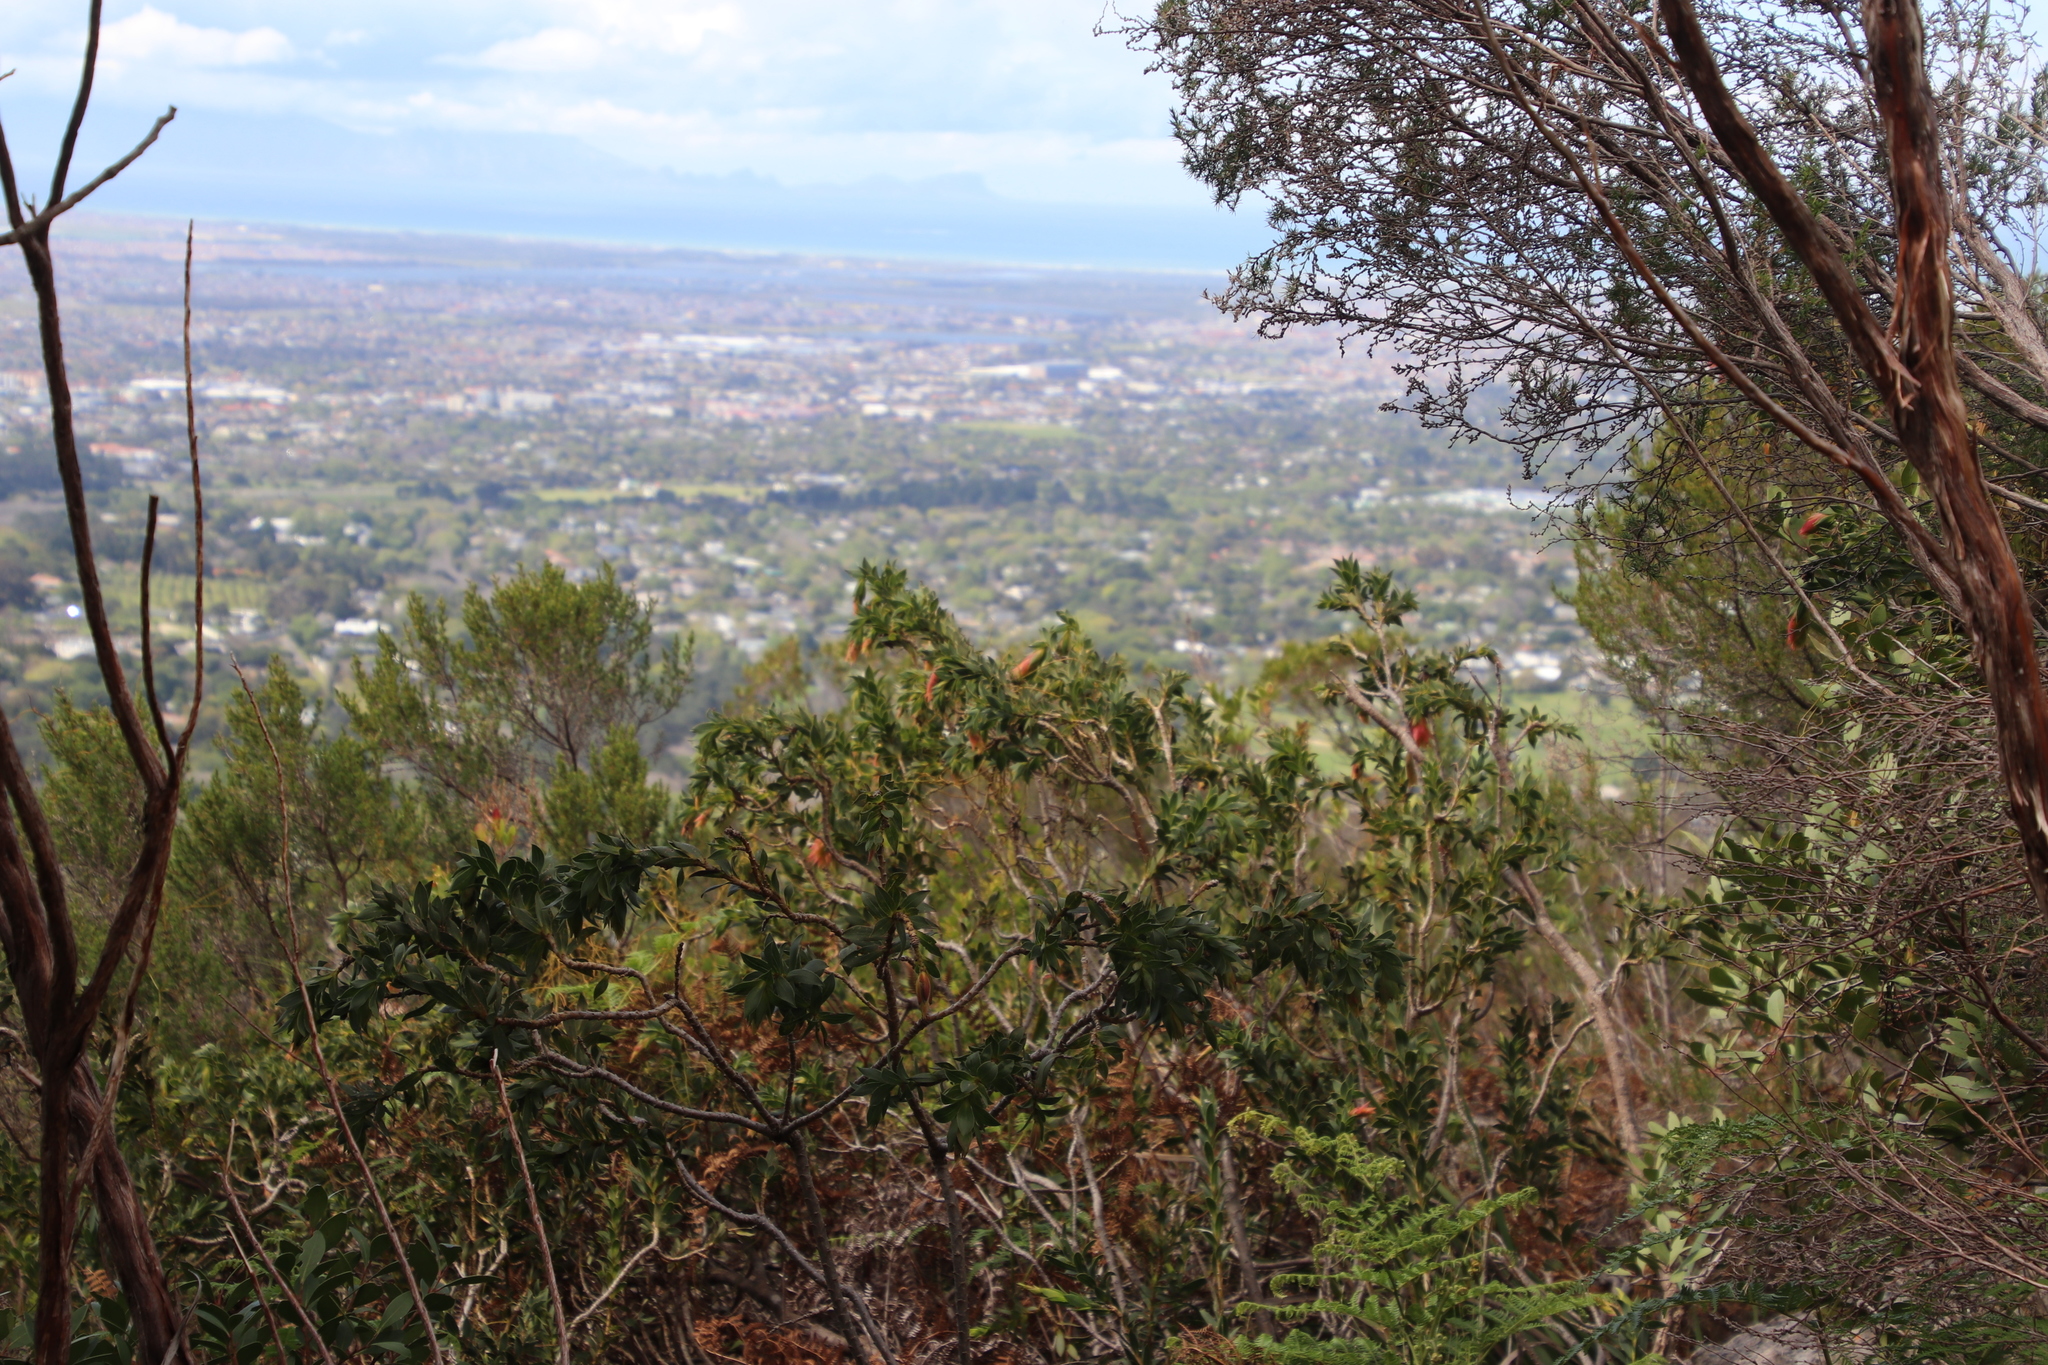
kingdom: Plantae
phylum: Tracheophyta
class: Magnoliopsida
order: Fabales
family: Fabaceae
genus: Liparia
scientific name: Liparia splendens
